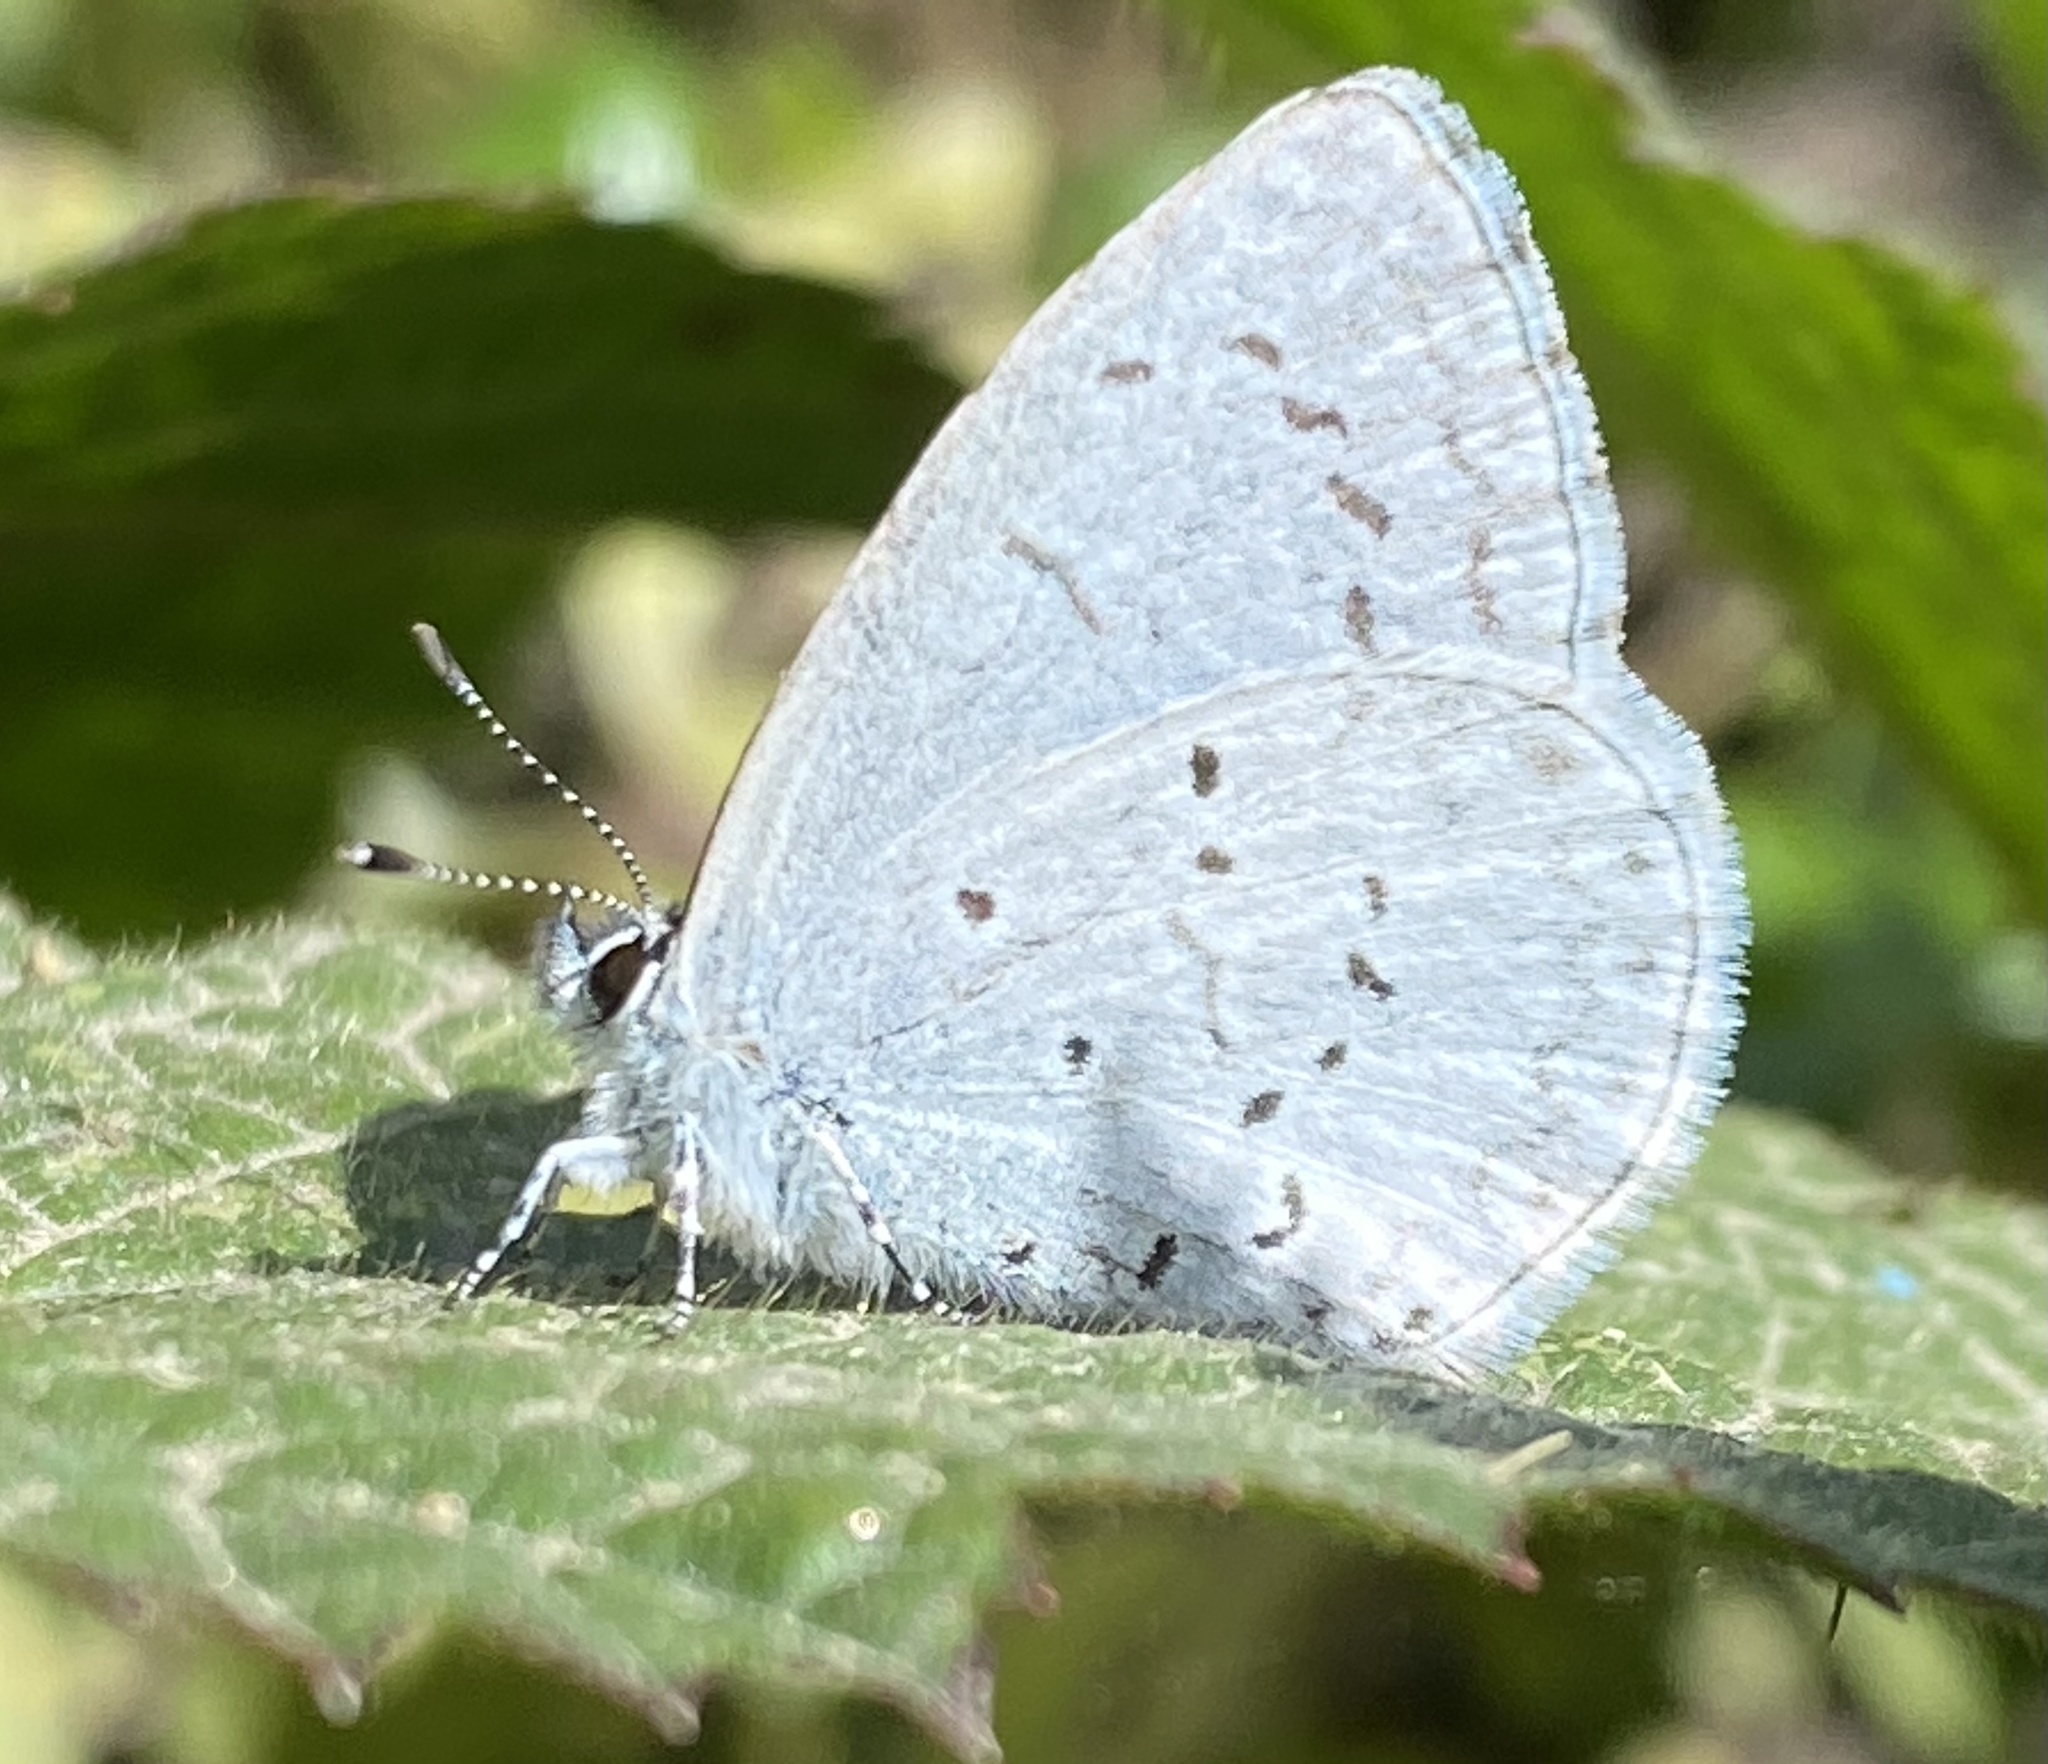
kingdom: Animalia
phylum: Arthropoda
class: Insecta
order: Lepidoptera
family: Lycaenidae
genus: Celastrina
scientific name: Celastrina ladon
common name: Spring azure
